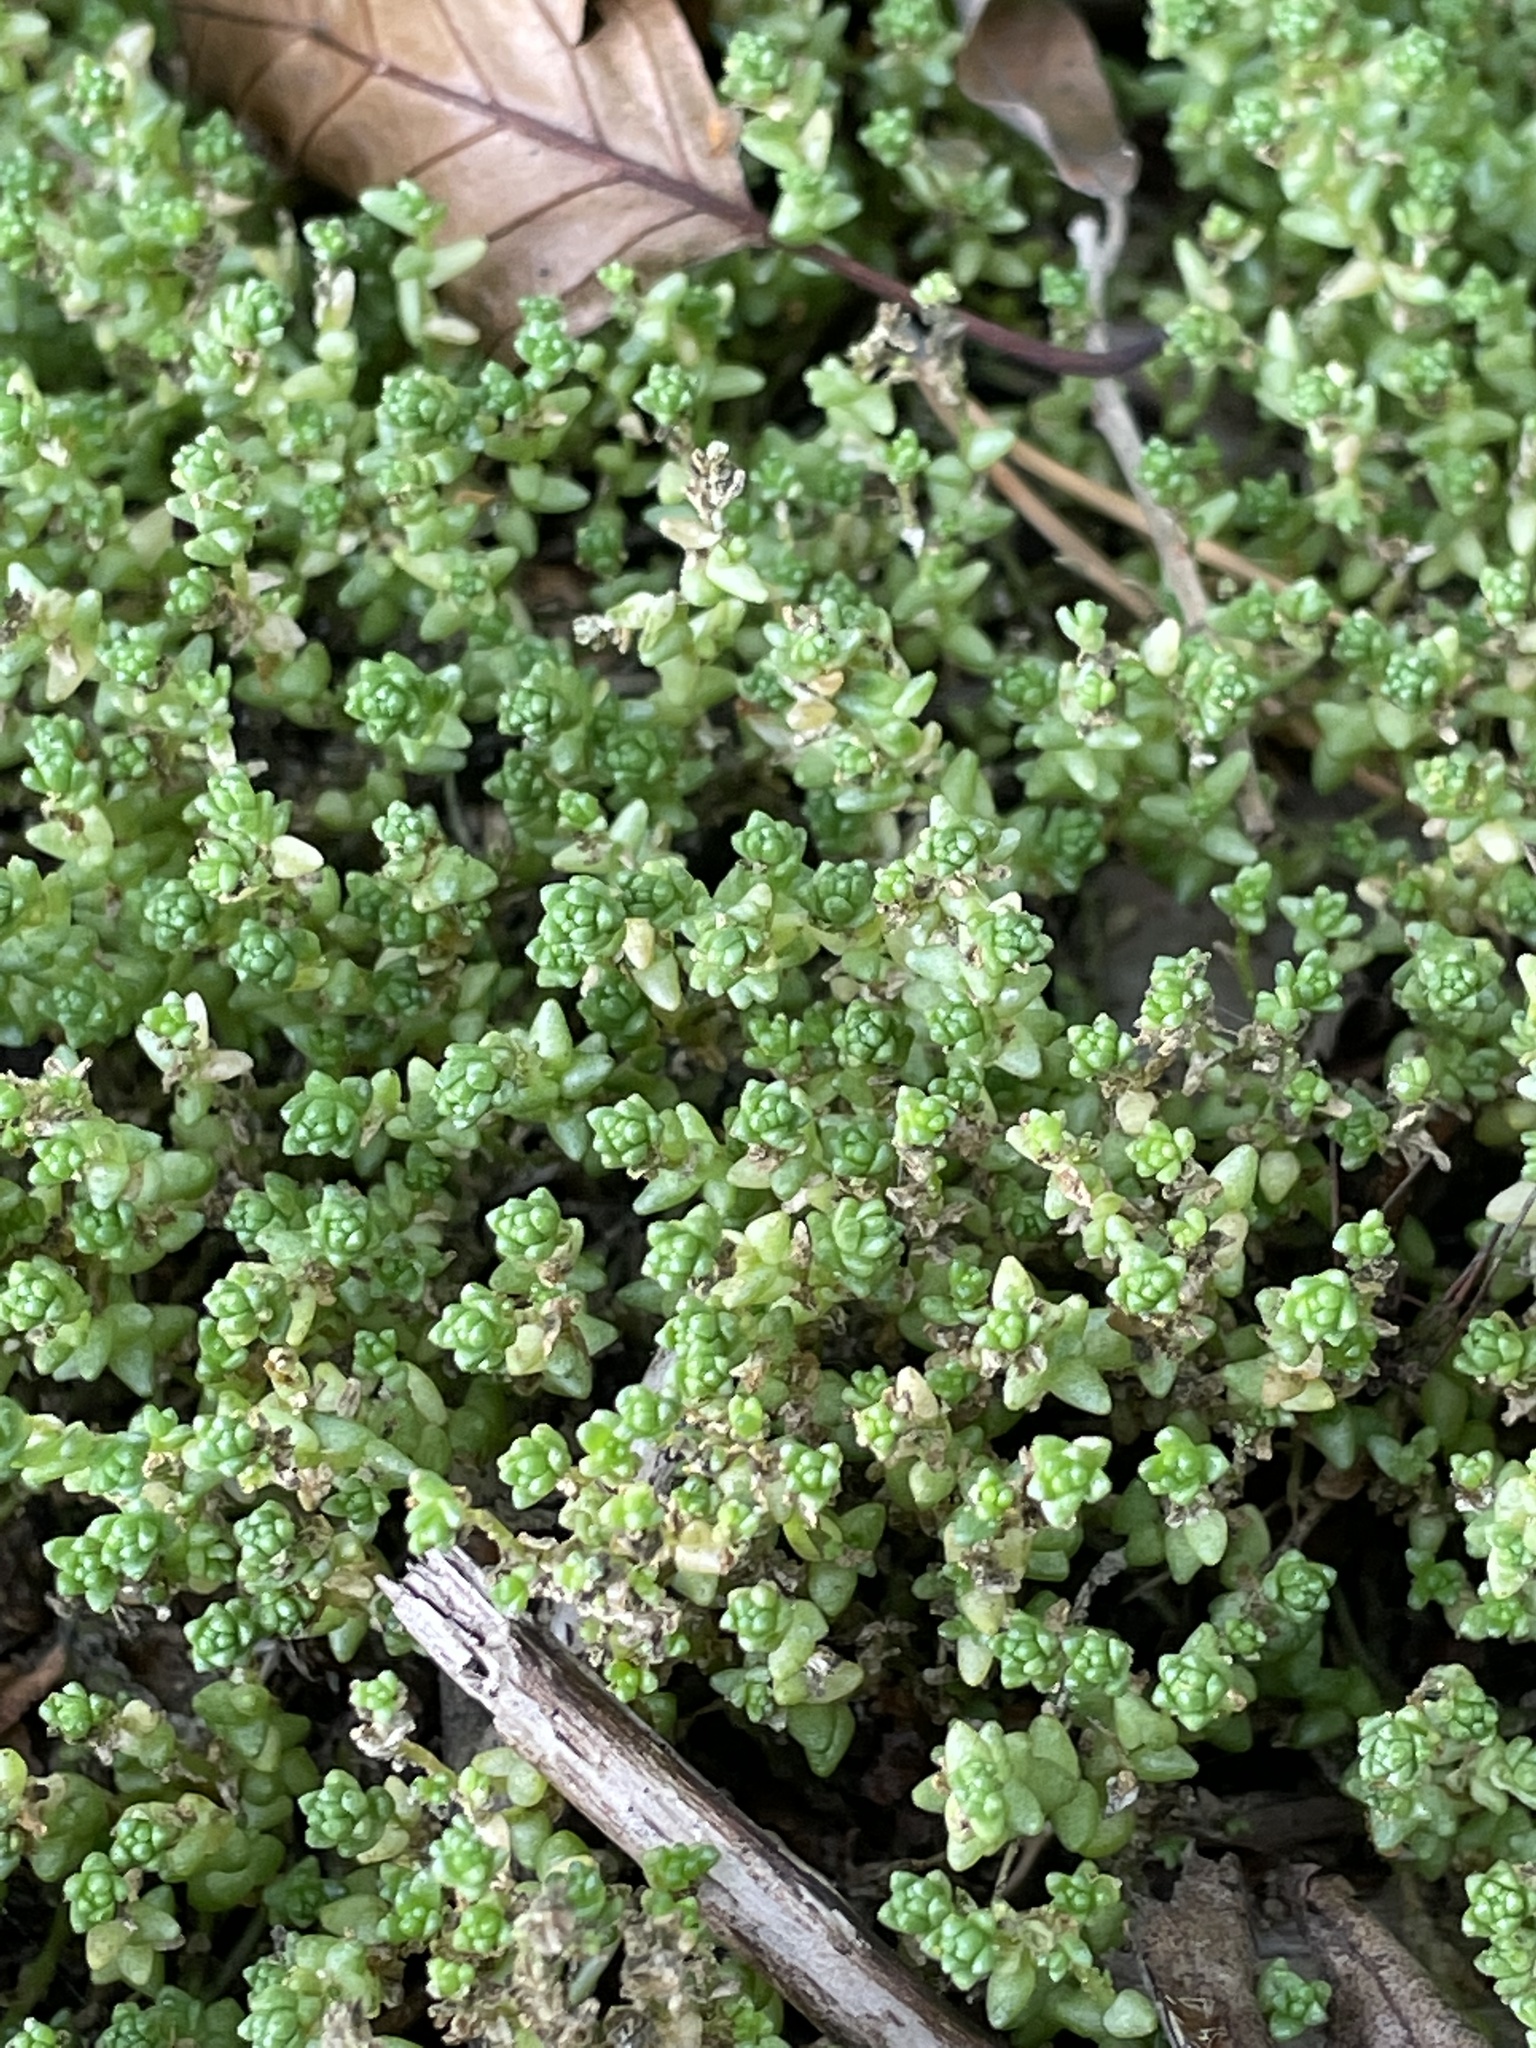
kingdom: Plantae
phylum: Tracheophyta
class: Magnoliopsida
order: Saxifragales
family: Crassulaceae
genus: Sedum
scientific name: Sedum acre
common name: Biting stonecrop
